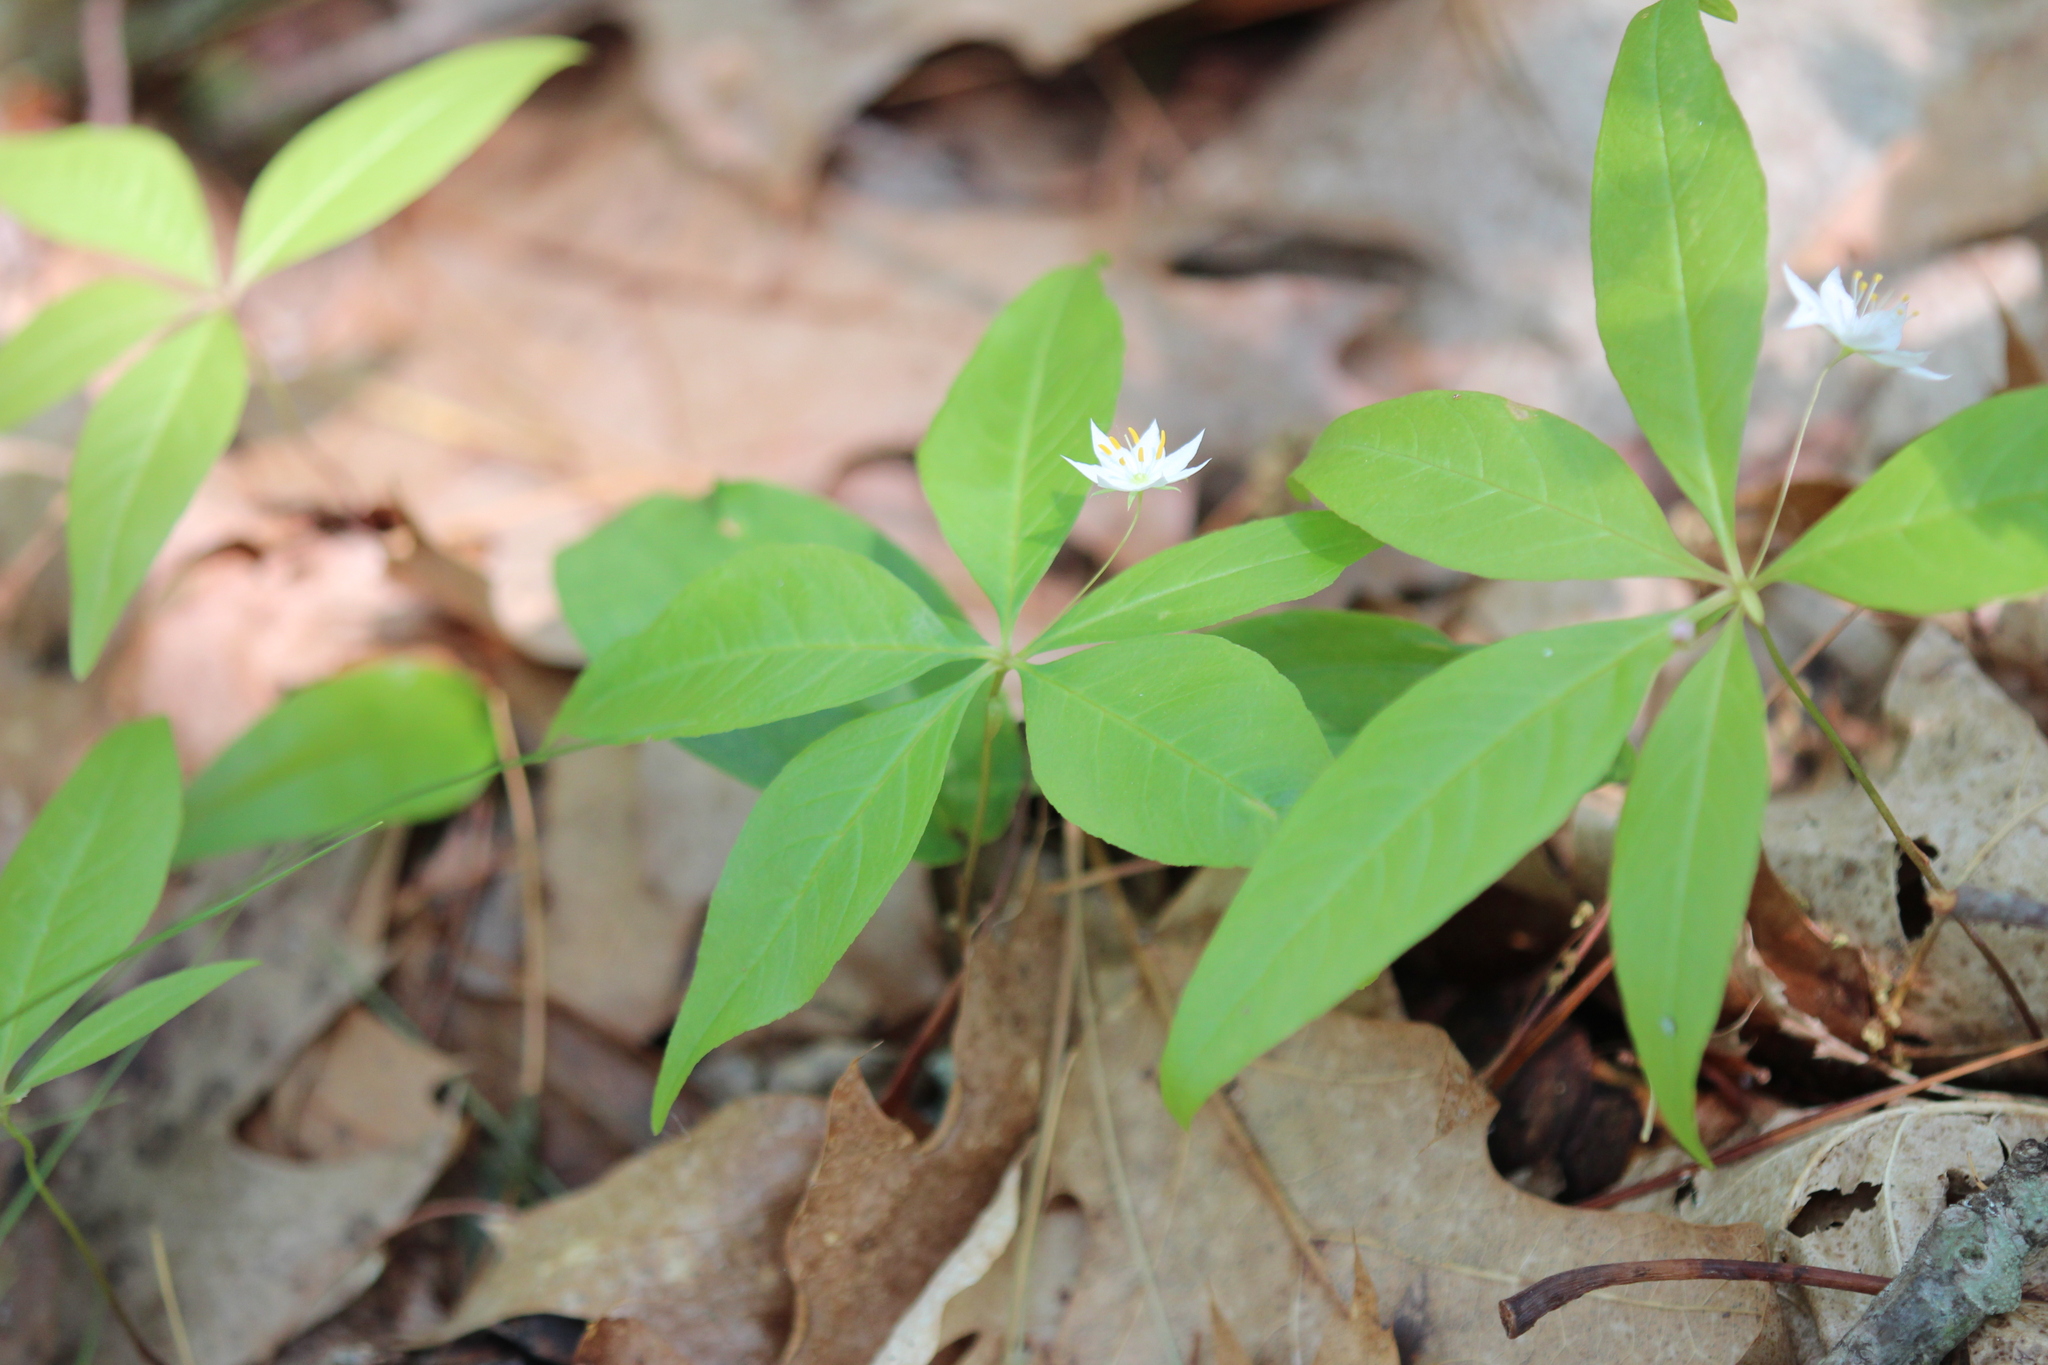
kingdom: Plantae
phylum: Tracheophyta
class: Magnoliopsida
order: Ericales
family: Primulaceae
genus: Lysimachia
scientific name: Lysimachia borealis
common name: American starflower
